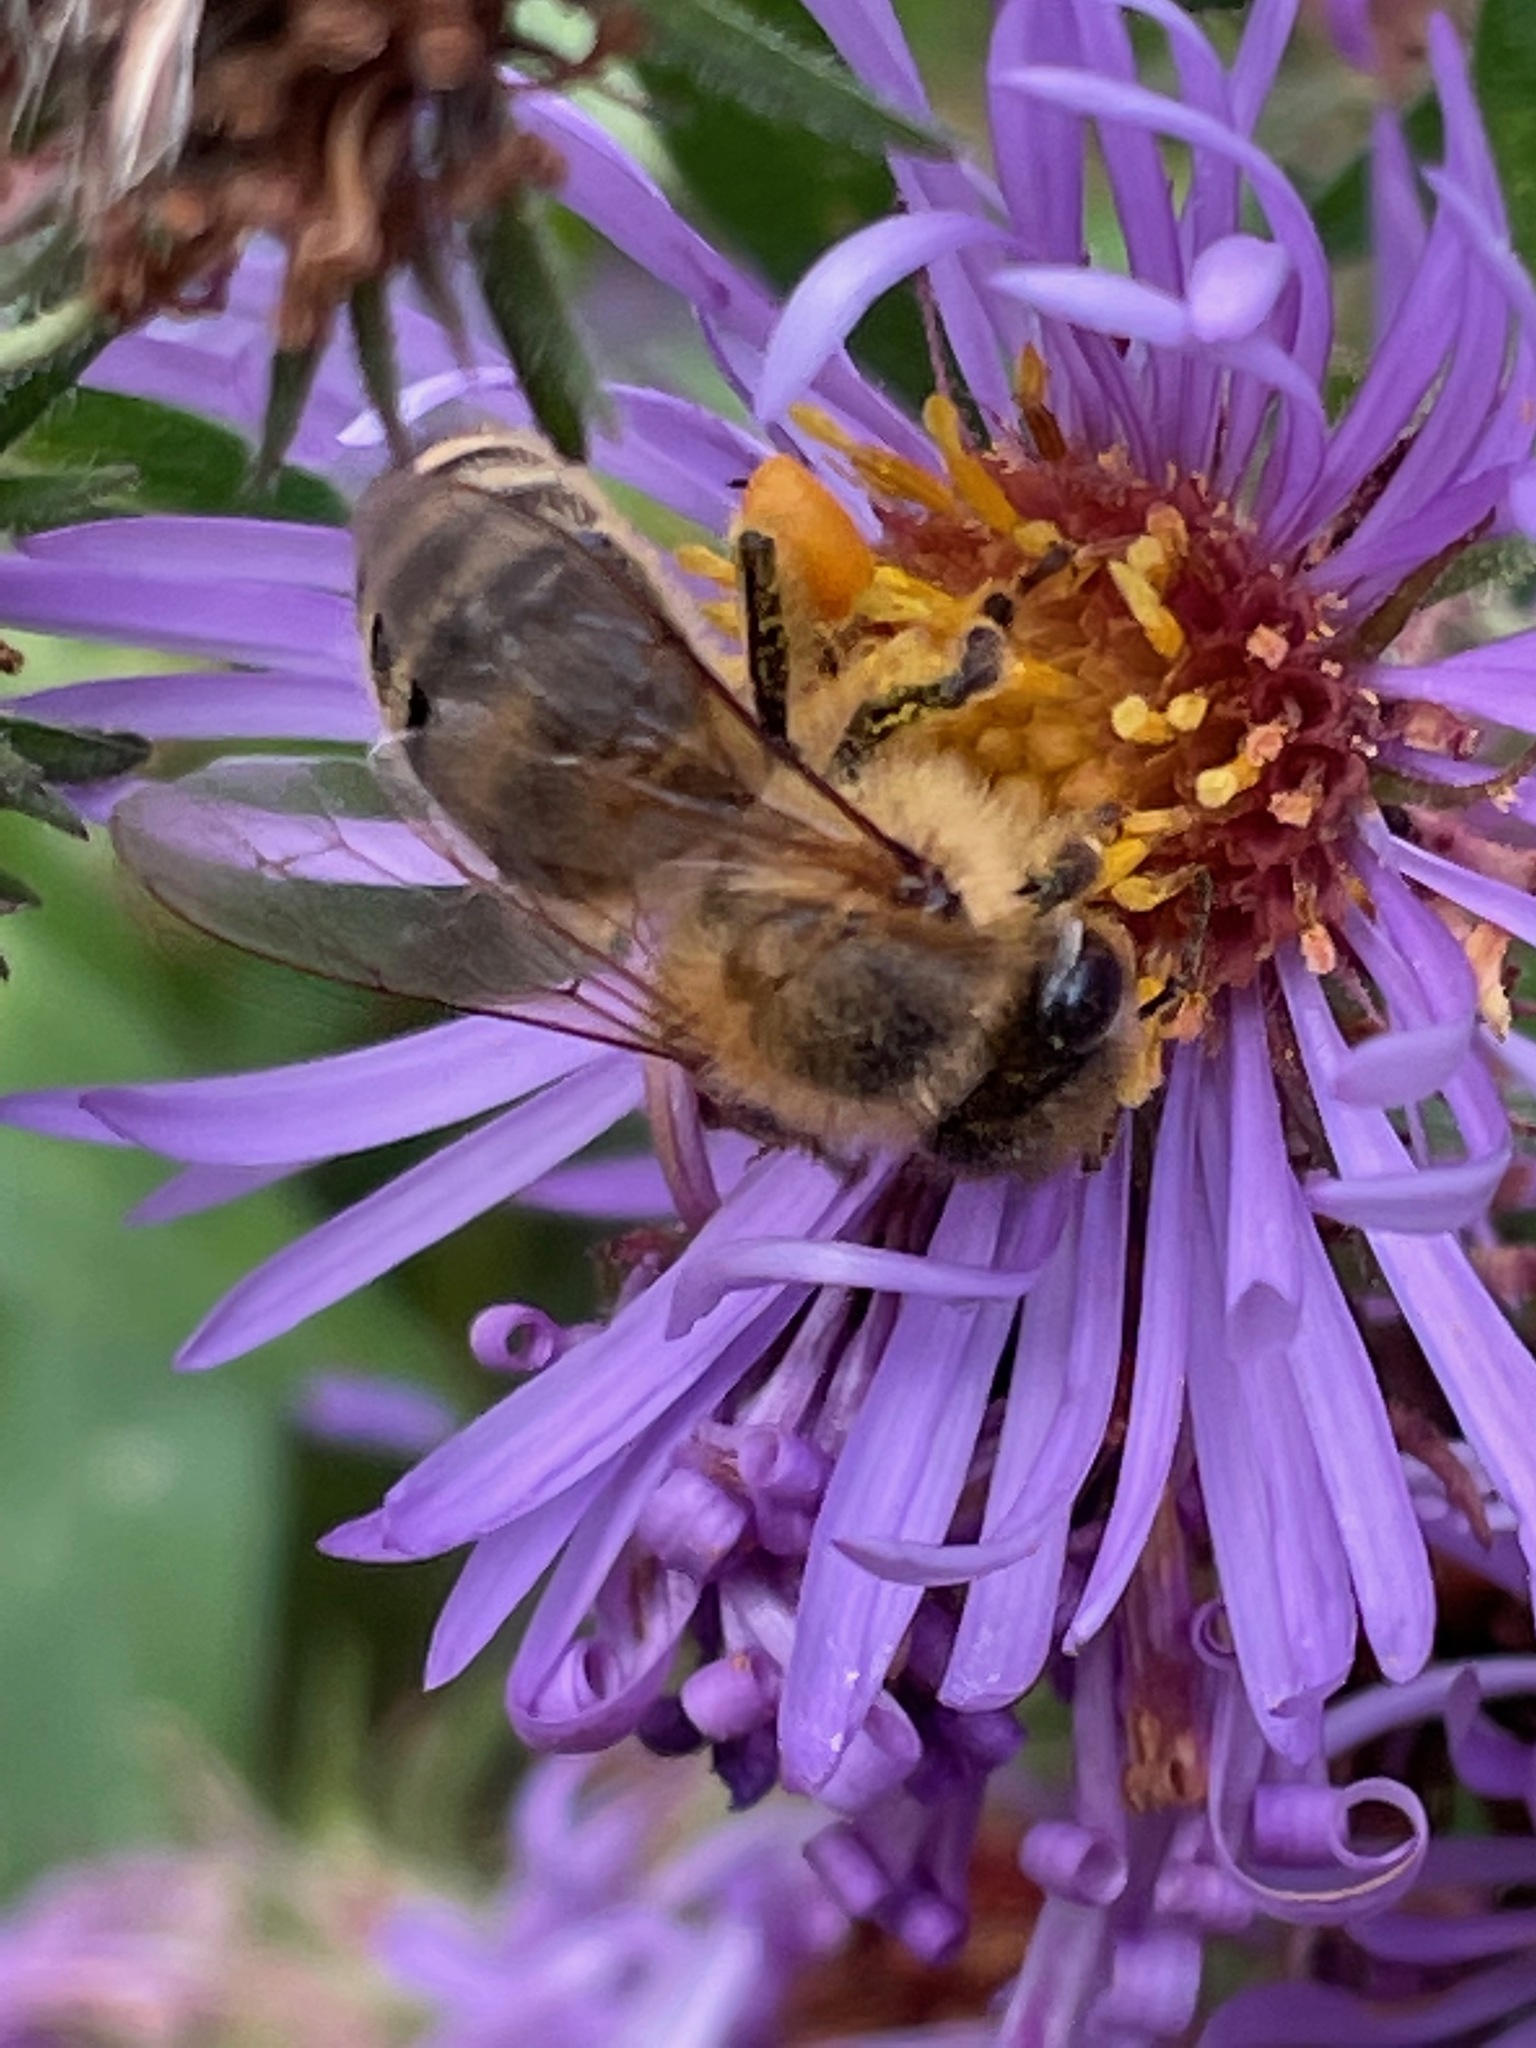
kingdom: Animalia
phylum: Arthropoda
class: Insecta
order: Hymenoptera
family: Apidae
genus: Apis
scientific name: Apis mellifera
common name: Honey bee
